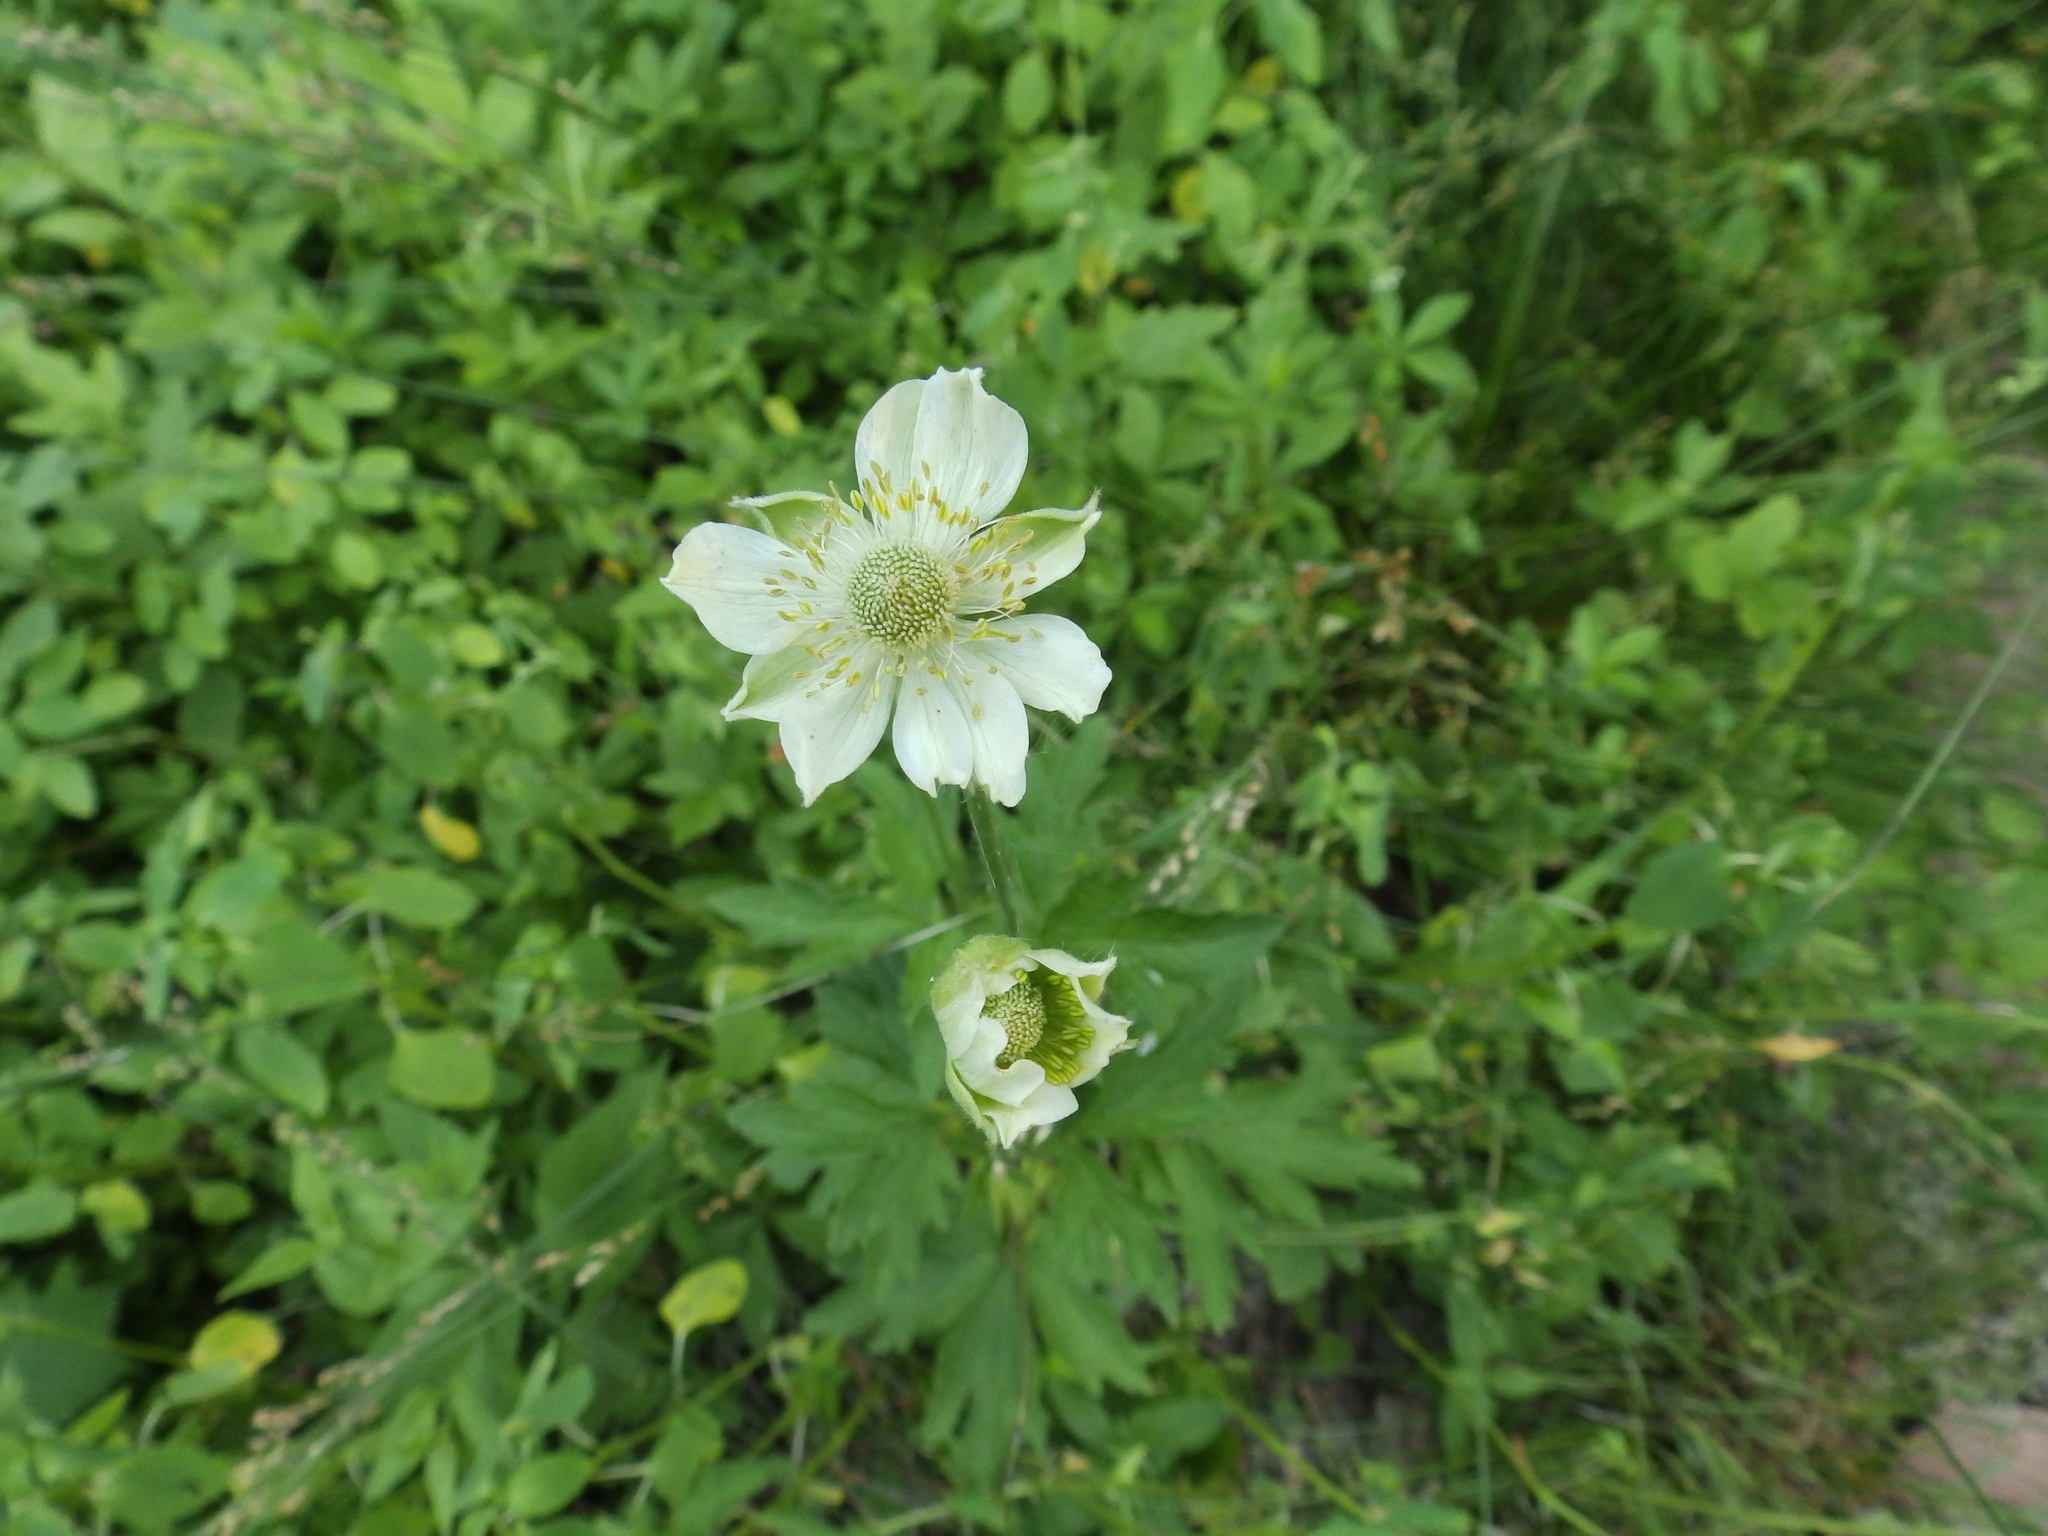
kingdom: Plantae
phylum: Tracheophyta
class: Magnoliopsida
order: Ranunculales
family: Ranunculaceae
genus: Anemone
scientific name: Anemone virginiana
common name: Tall anemone
